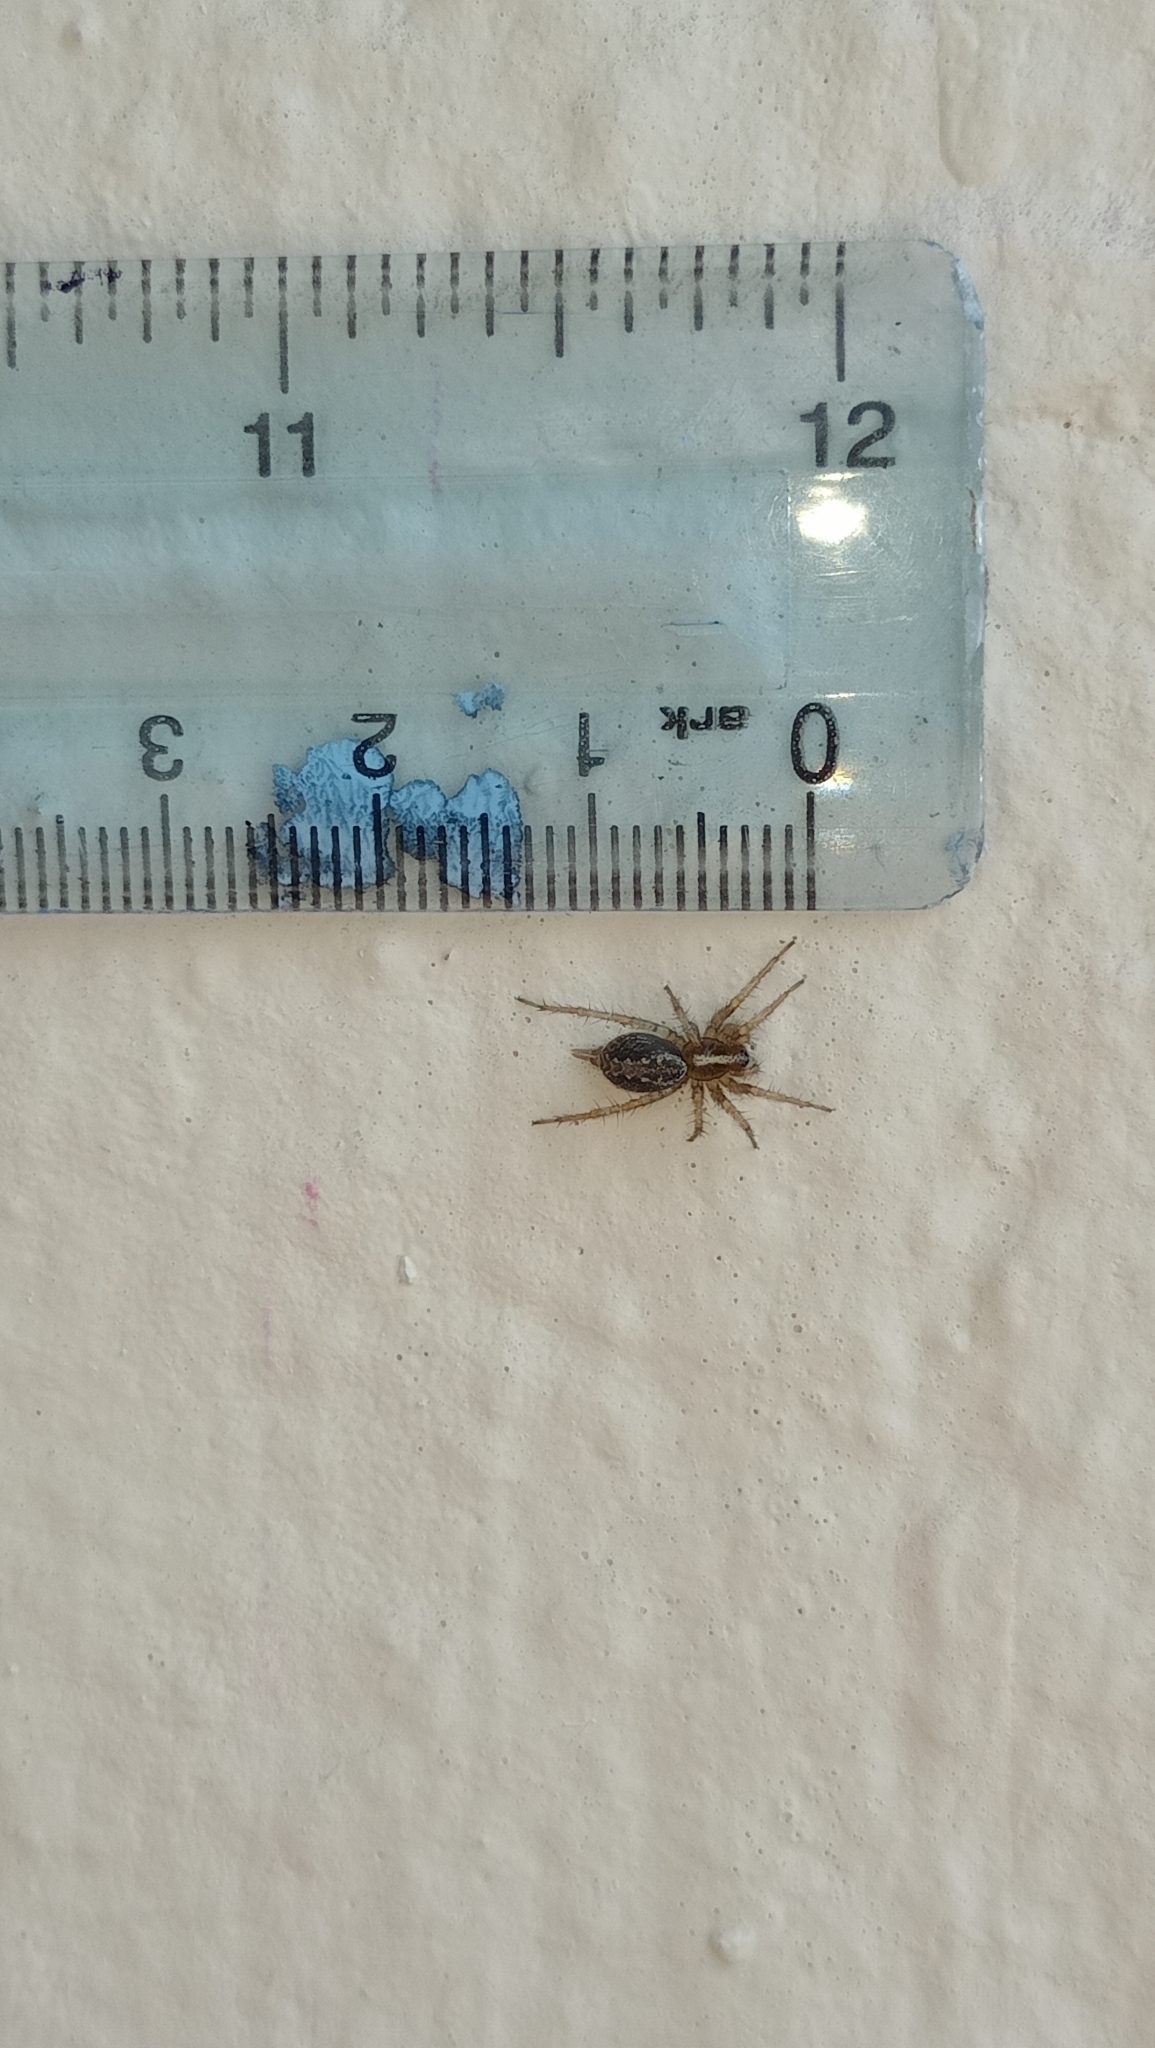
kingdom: Animalia
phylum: Arthropoda
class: Arachnida
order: Araneae
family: Agelenidae
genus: Maimuna
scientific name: Maimuna vestita
